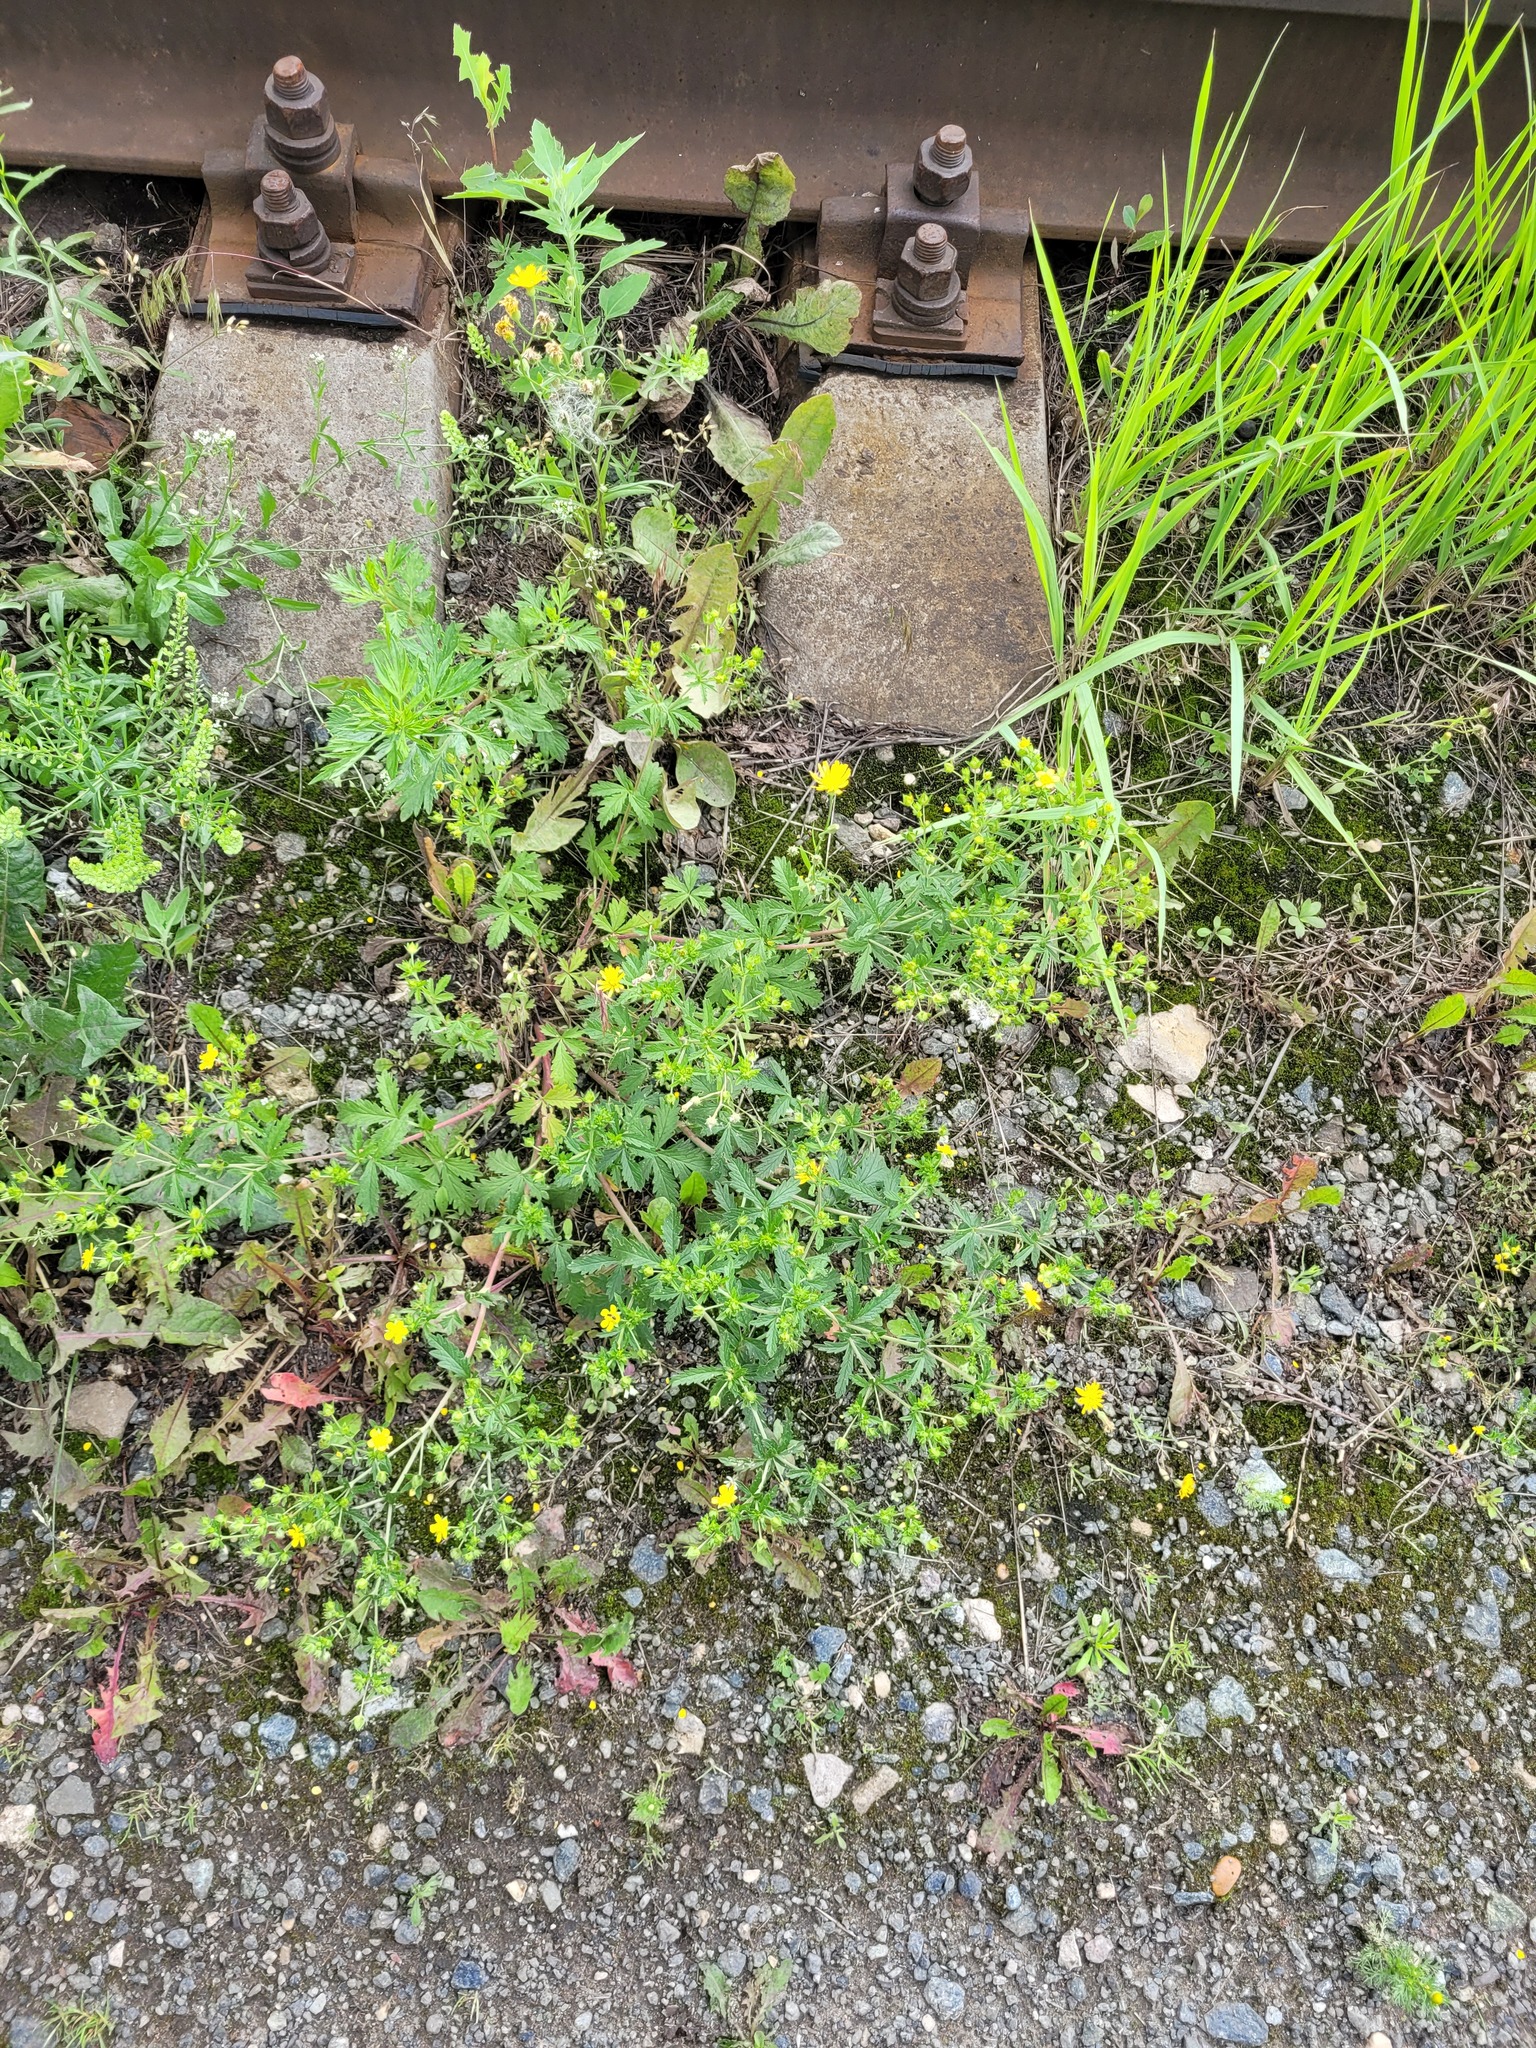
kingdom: Plantae
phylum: Tracheophyta
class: Magnoliopsida
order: Rosales
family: Rosaceae
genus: Potentilla
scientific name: Potentilla intermedia
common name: Downy cinquefoil
